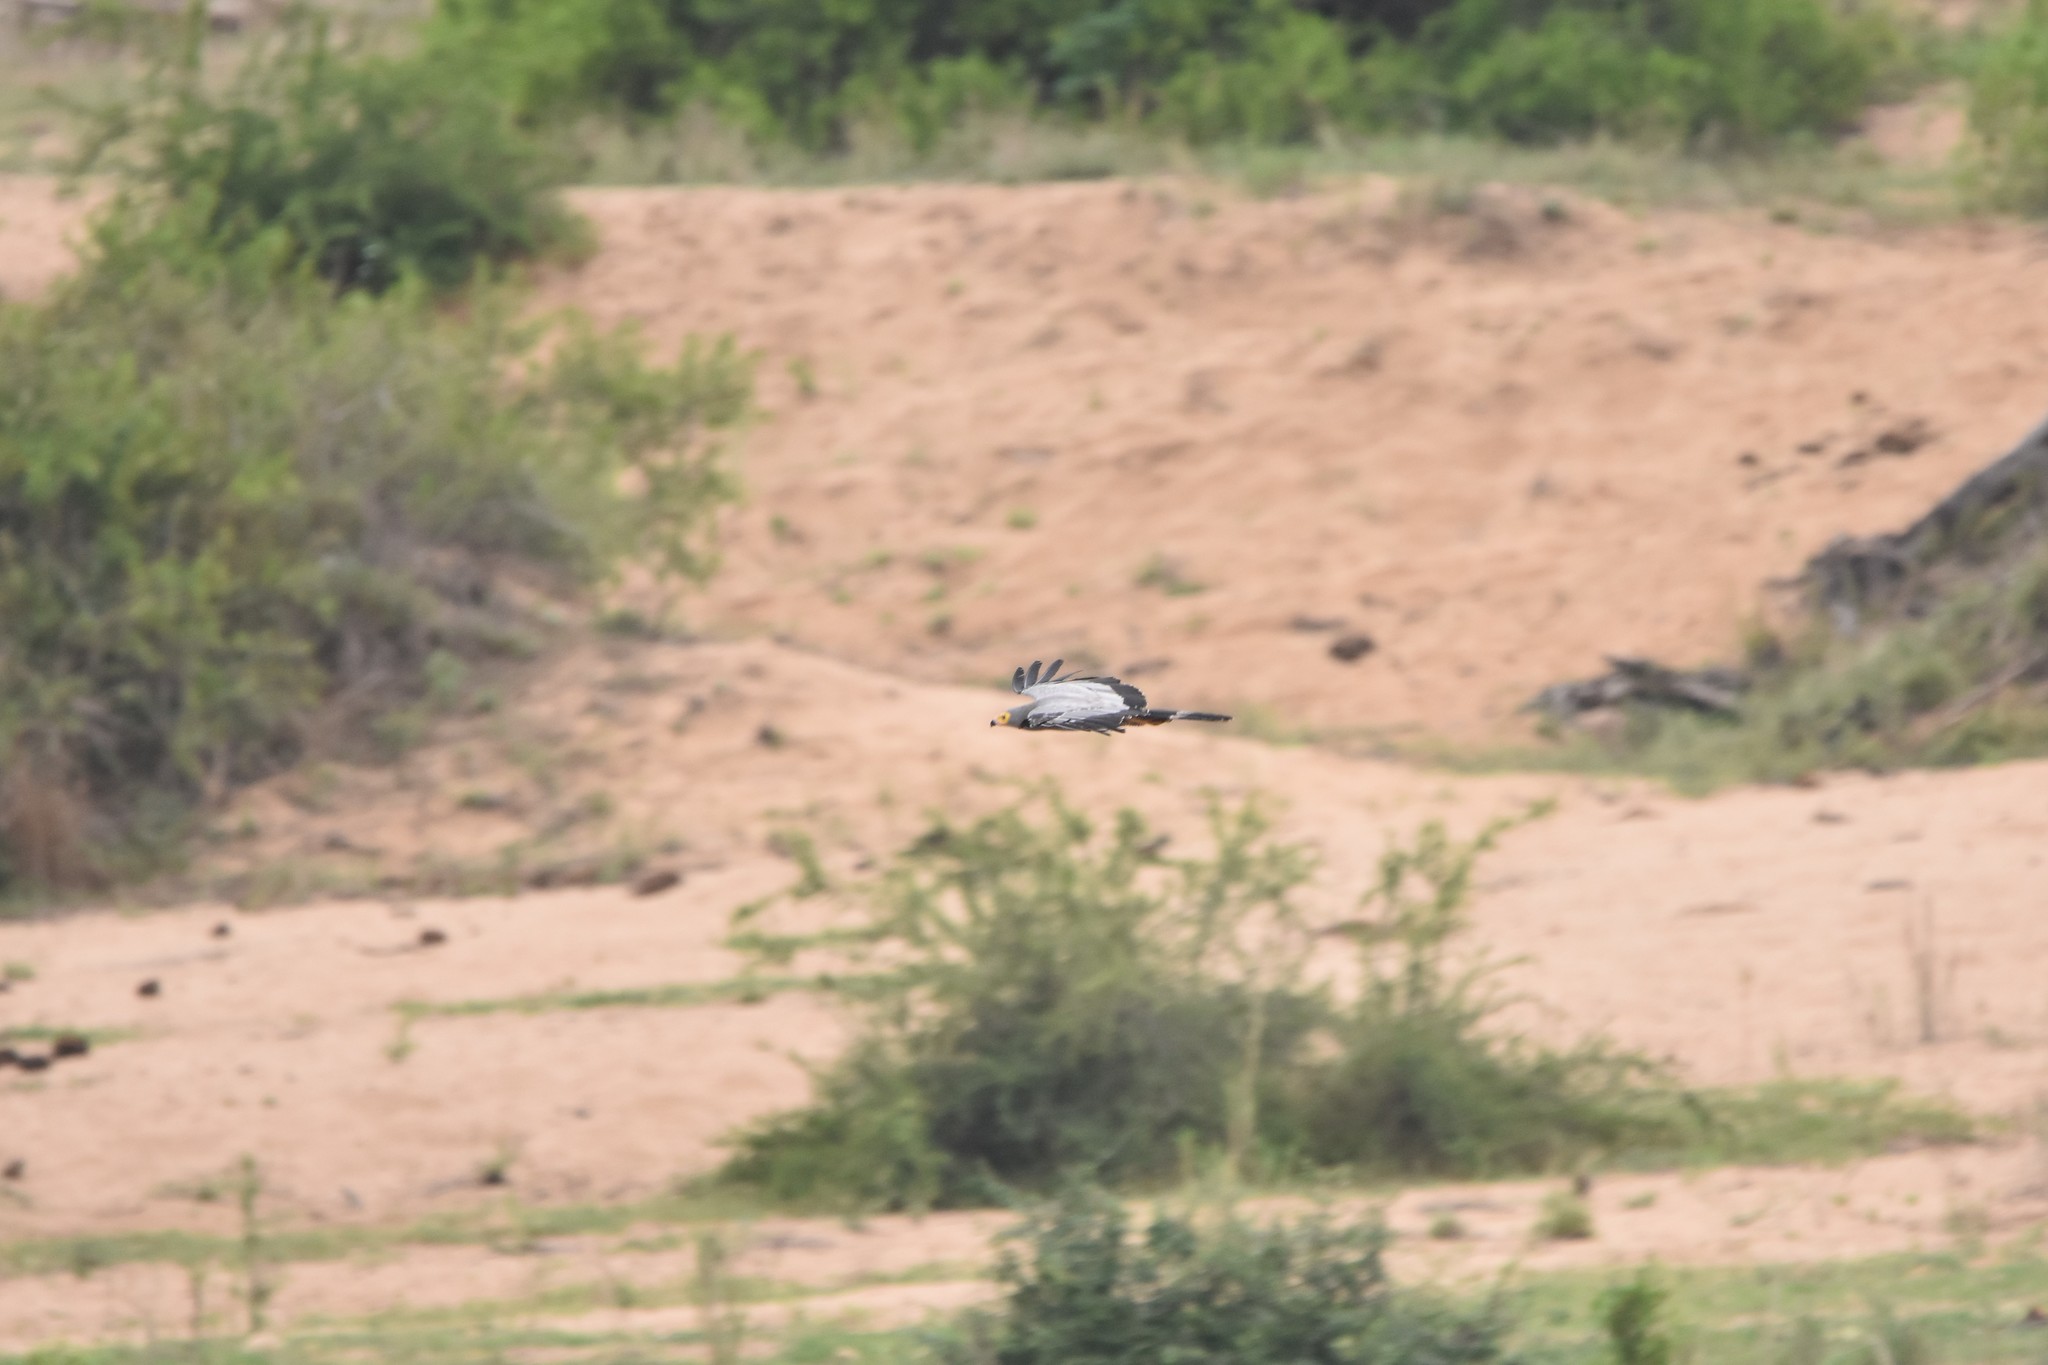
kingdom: Animalia
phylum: Chordata
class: Aves
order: Accipitriformes
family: Accipitridae
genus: Polyboroides
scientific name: Polyboroides typus
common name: African harrier-hawk
